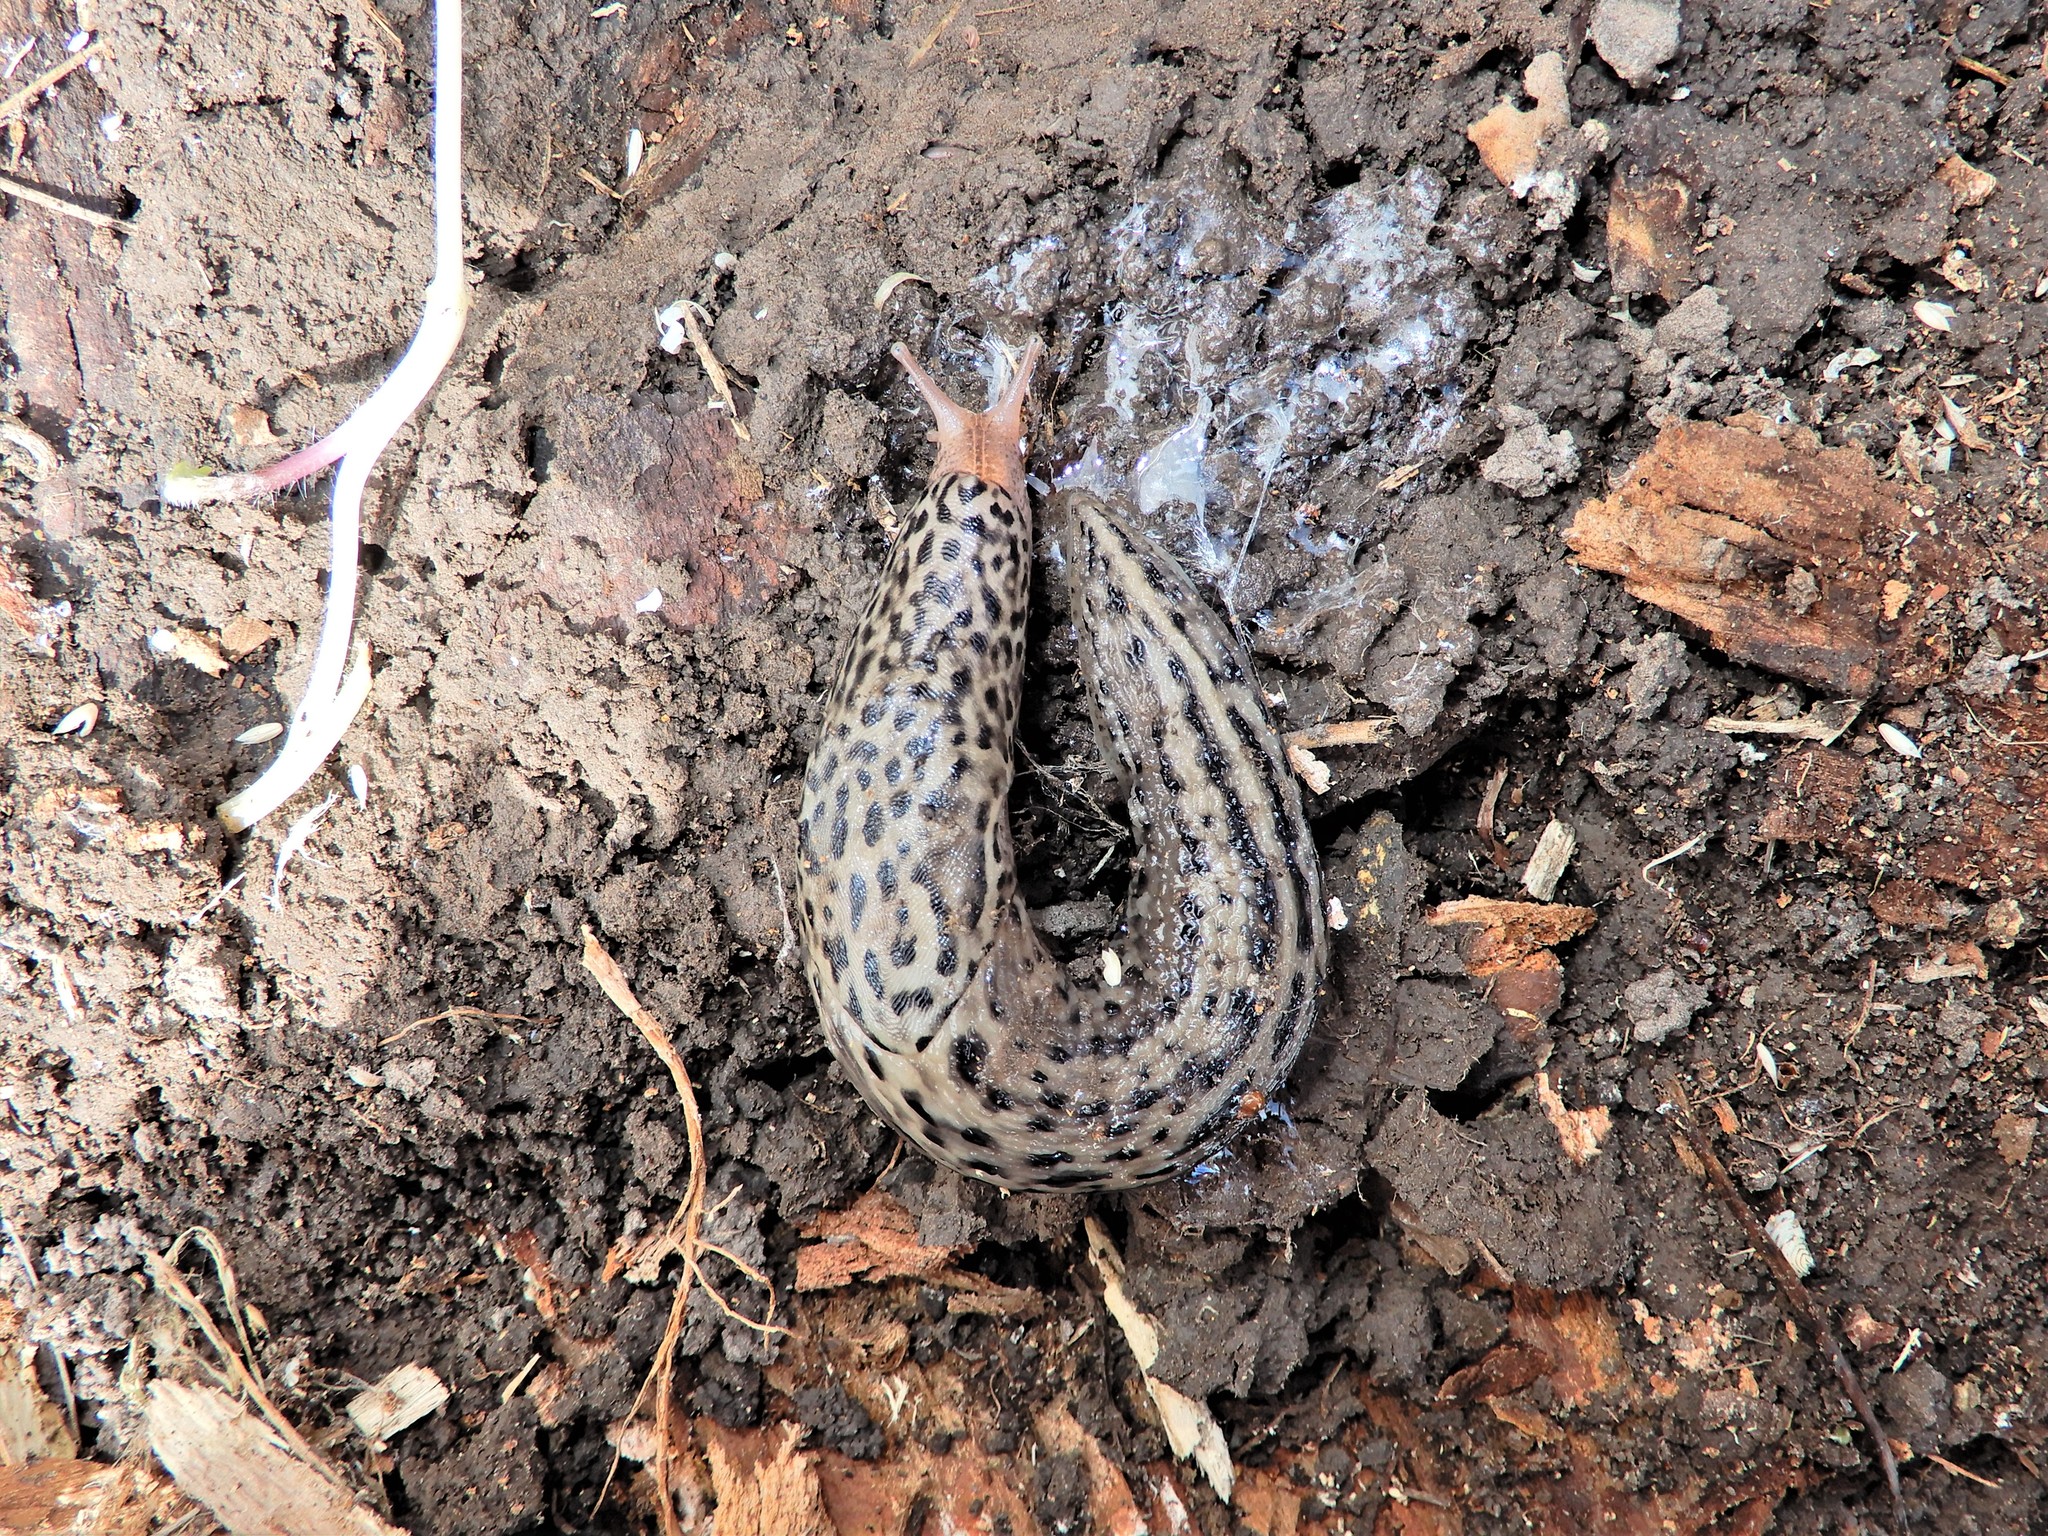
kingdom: Animalia
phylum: Mollusca
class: Gastropoda
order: Stylommatophora
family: Limacidae
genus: Limax
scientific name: Limax maximus
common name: Great grey slug
